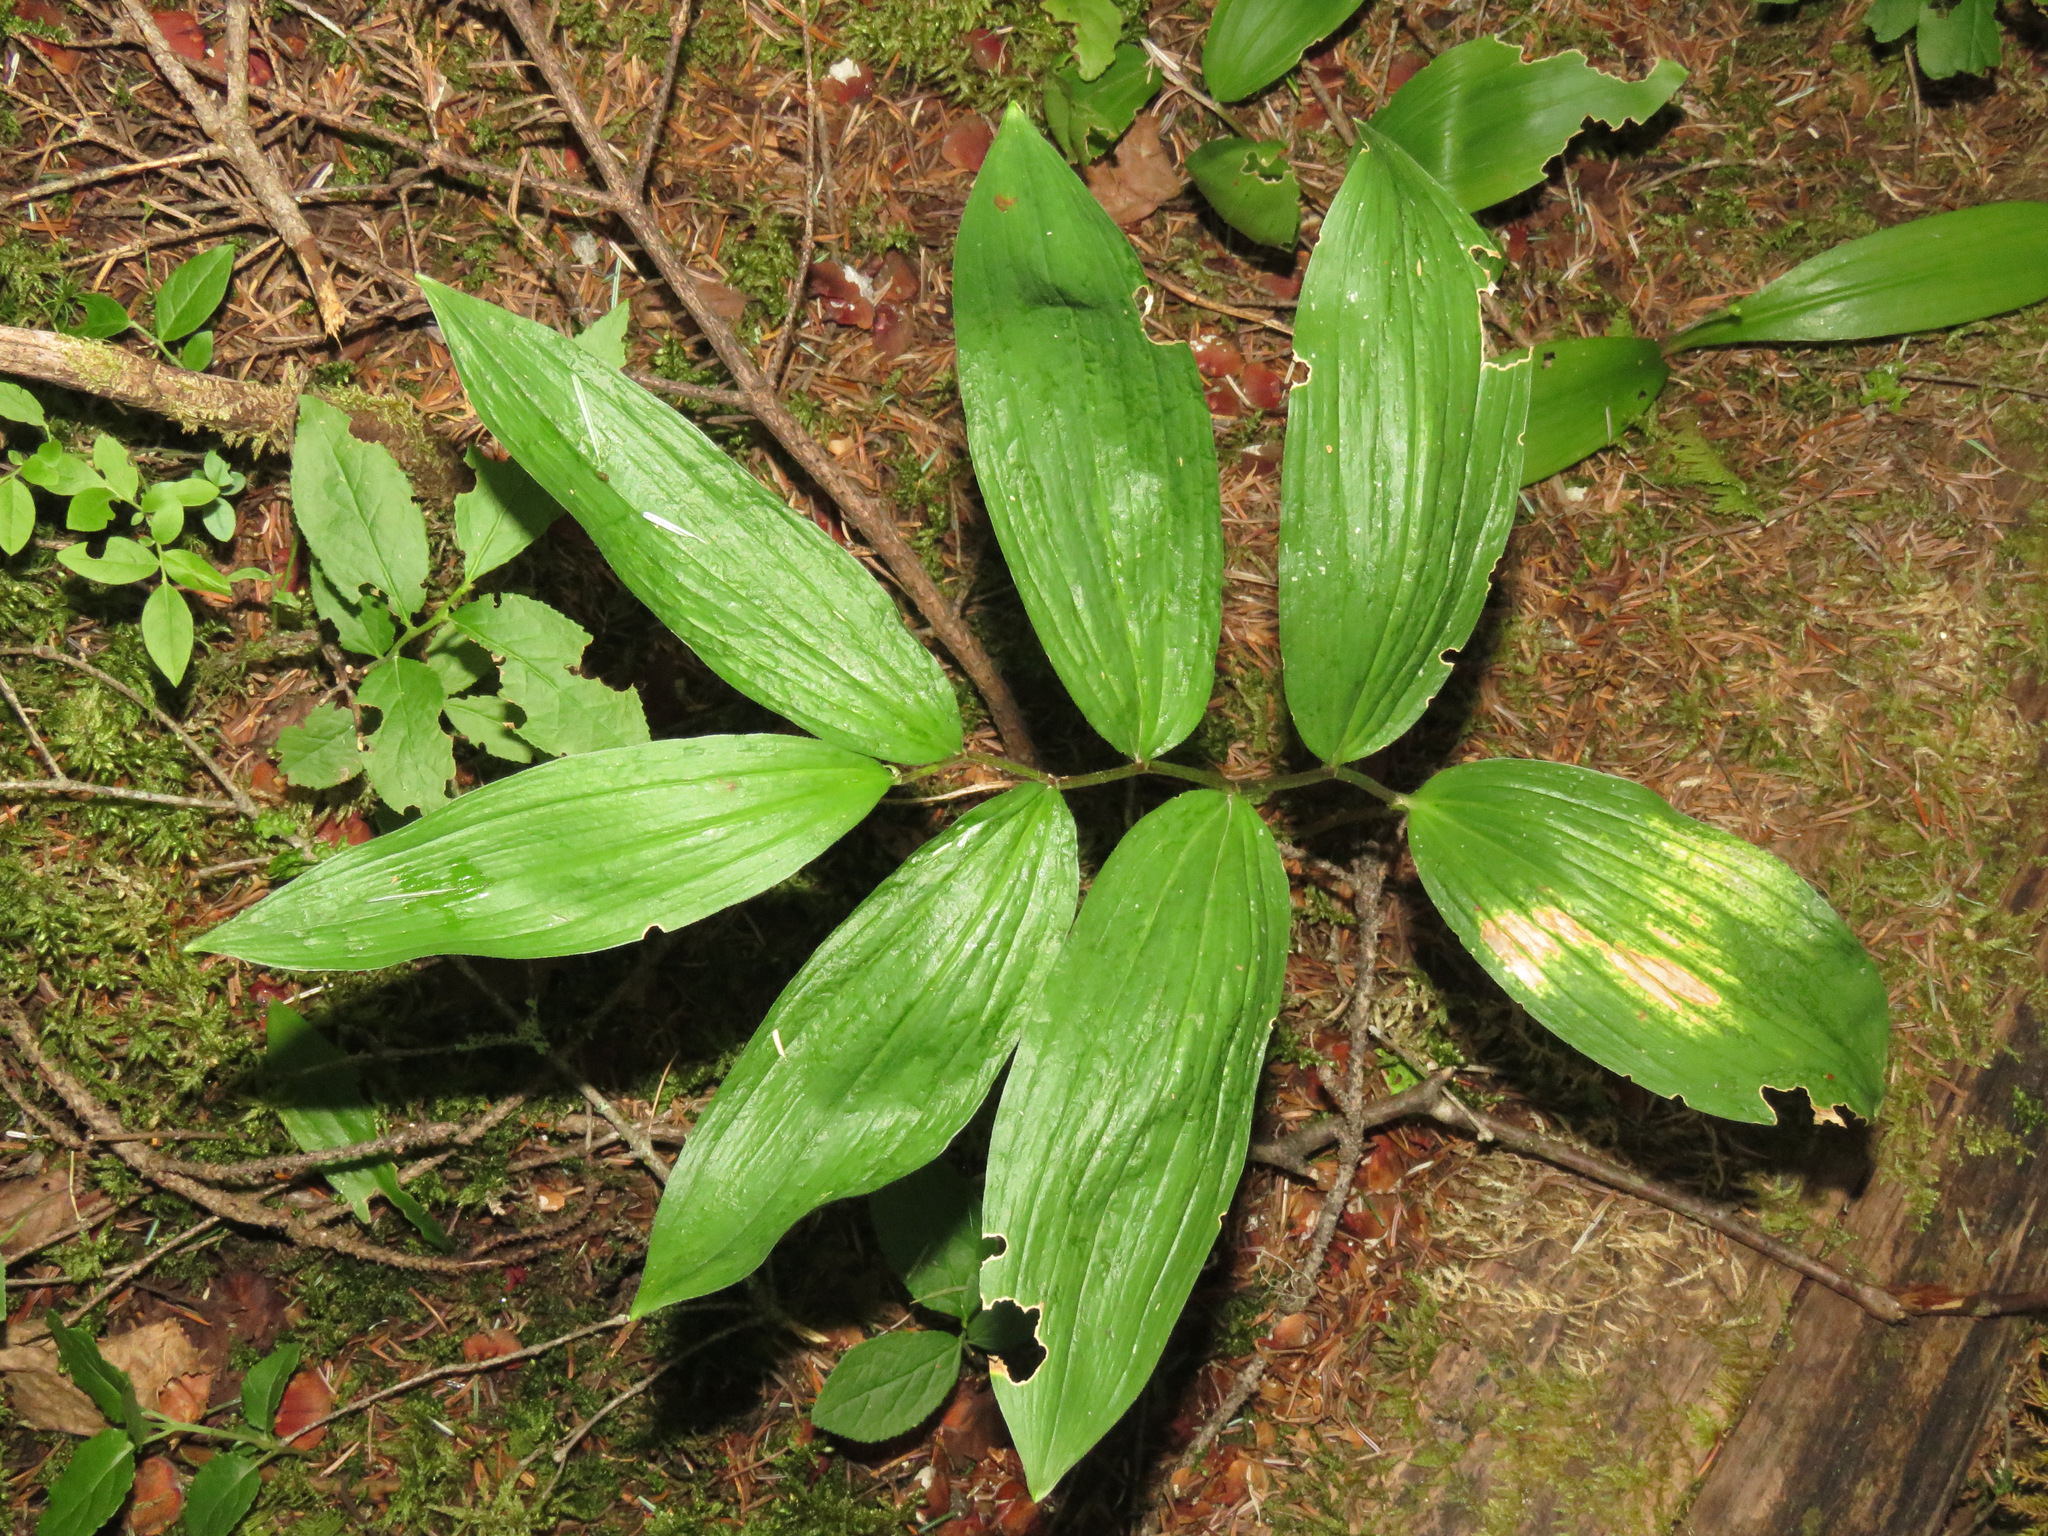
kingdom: Plantae
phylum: Tracheophyta
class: Liliopsida
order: Asparagales
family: Asparagaceae
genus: Maianthemum
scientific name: Maianthemum racemosum
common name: False spikenard
